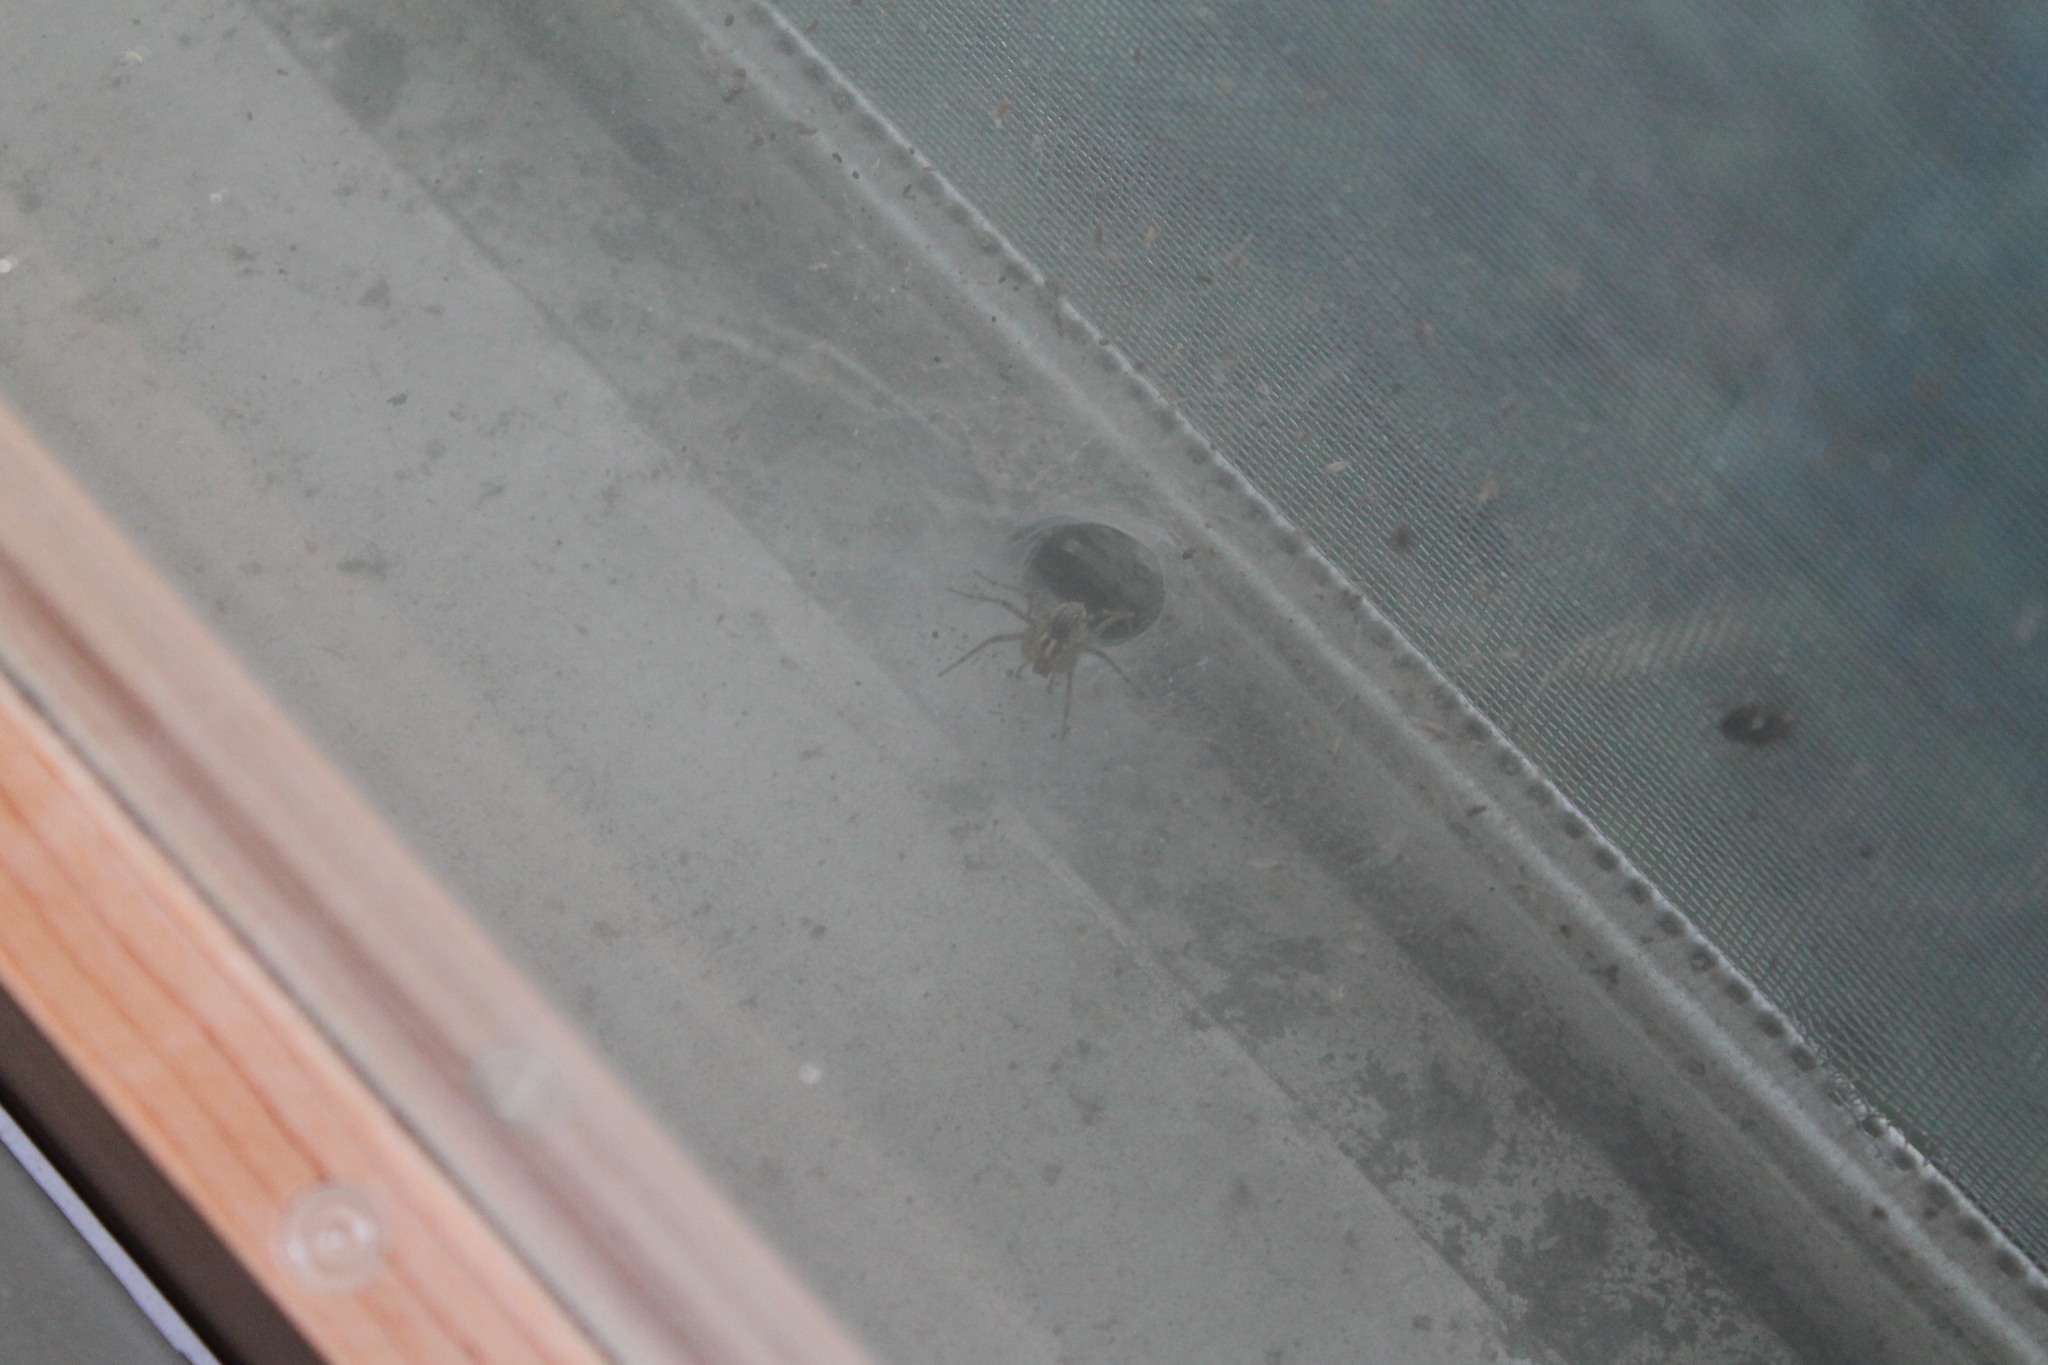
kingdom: Animalia
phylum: Arthropoda
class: Arachnida
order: Araneae
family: Agelenidae
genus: Agelenopsis
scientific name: Agelenopsis
